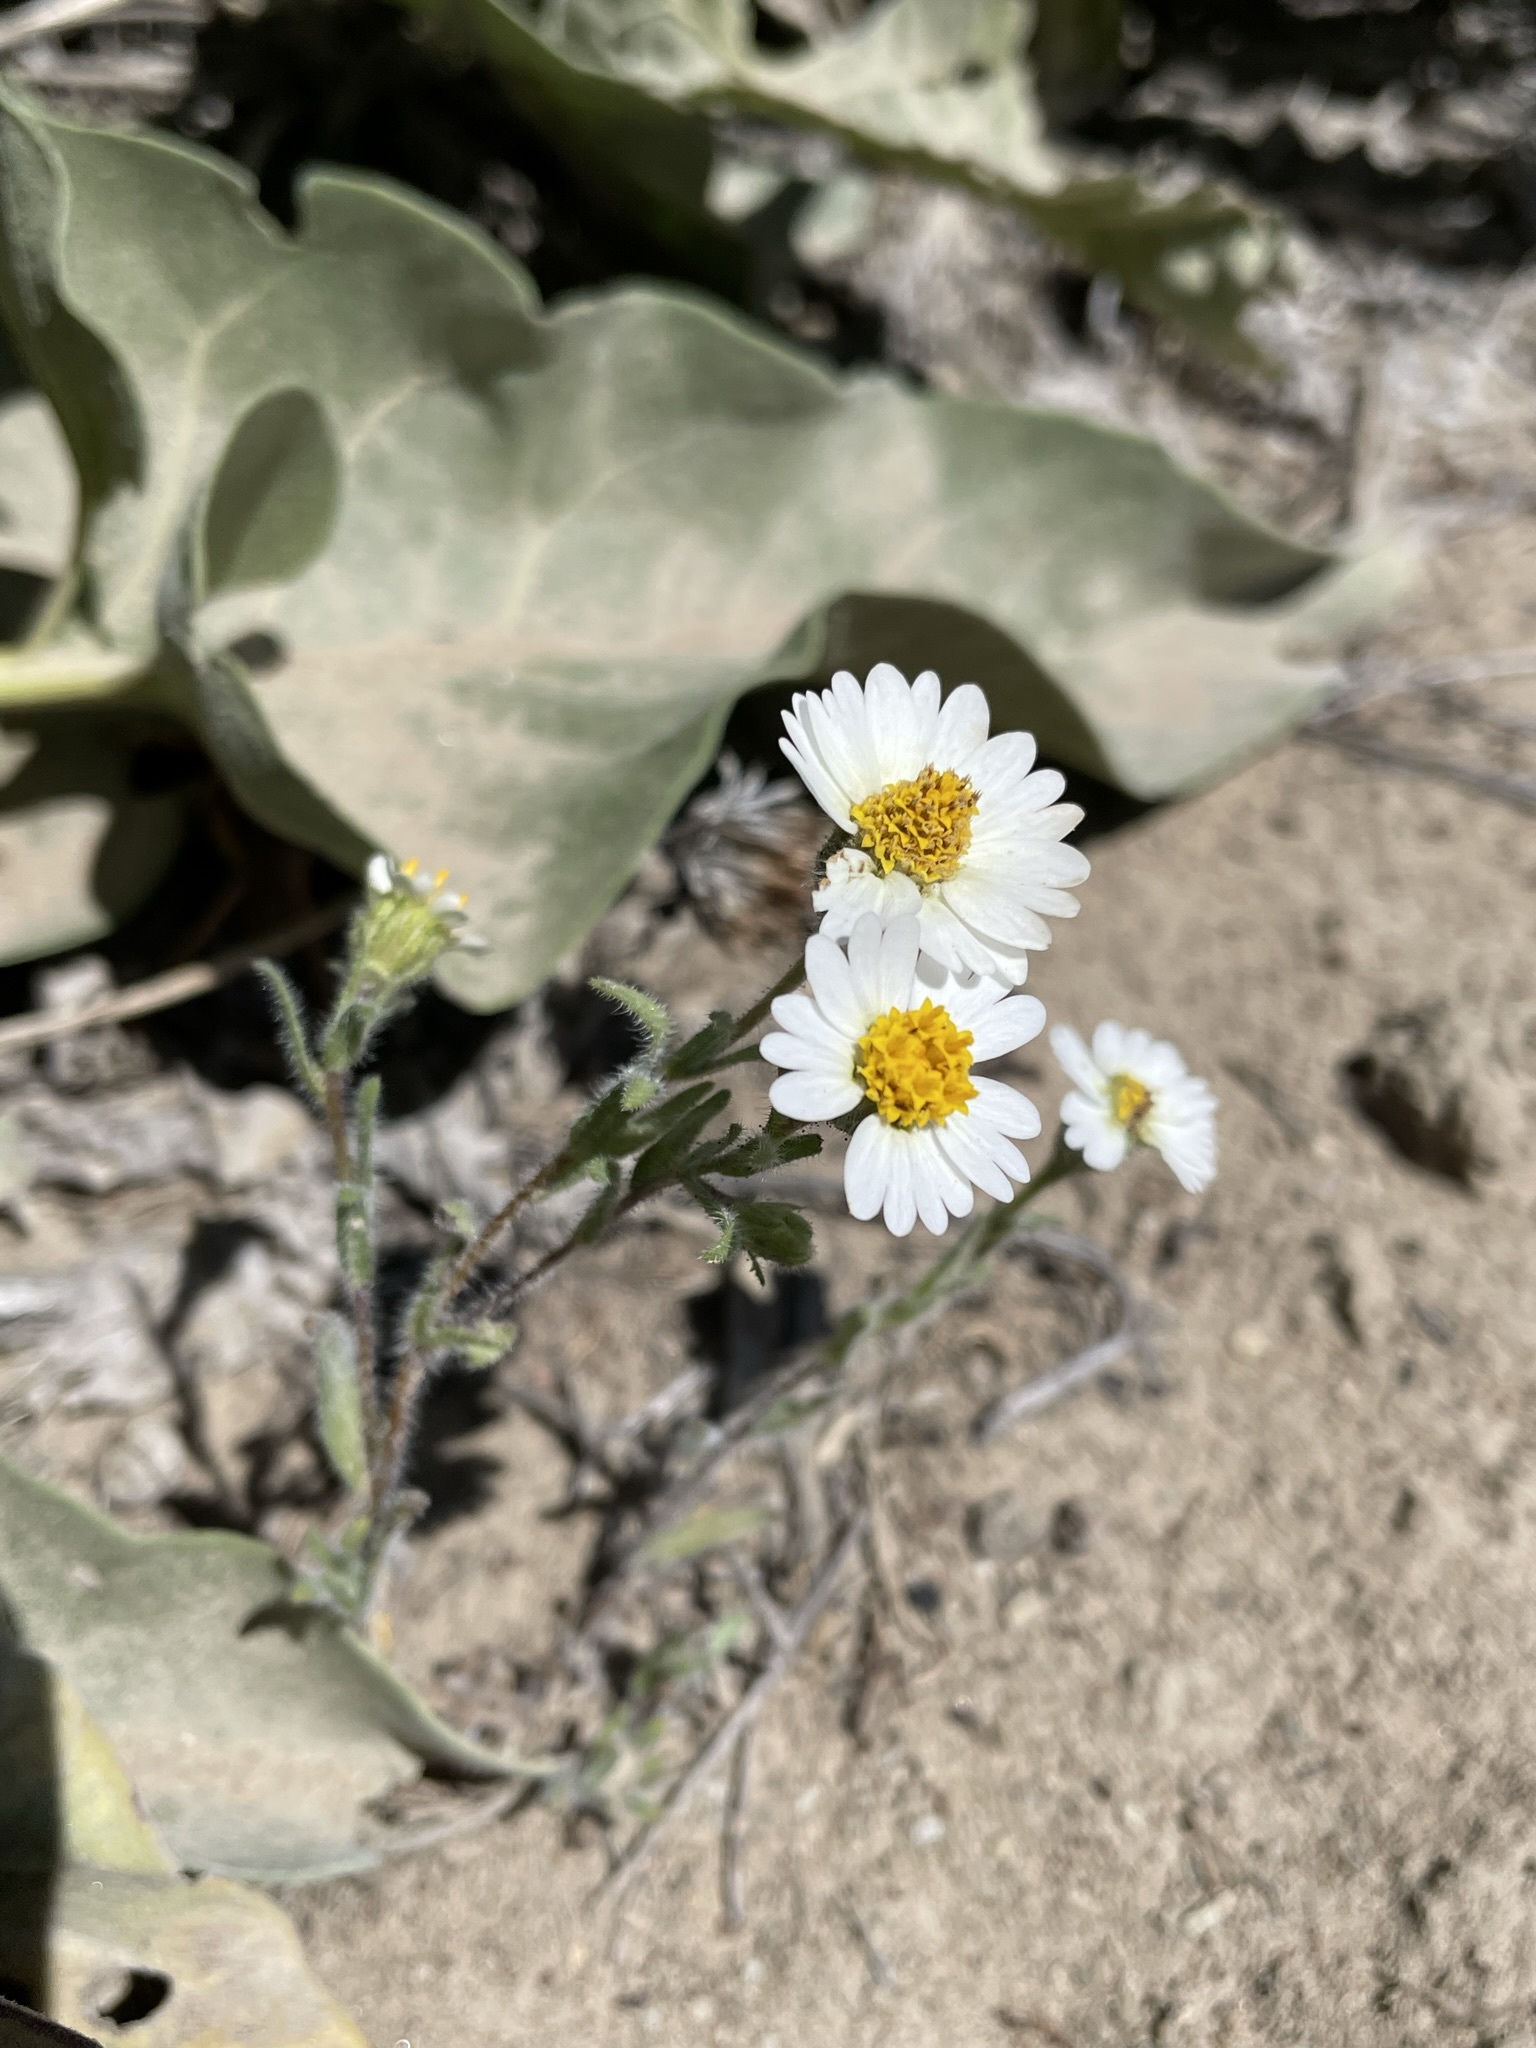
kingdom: Plantae
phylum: Tracheophyta
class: Magnoliopsida
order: Asterales
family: Asteraceae
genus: Layia
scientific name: Layia glandulosa
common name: White layia
